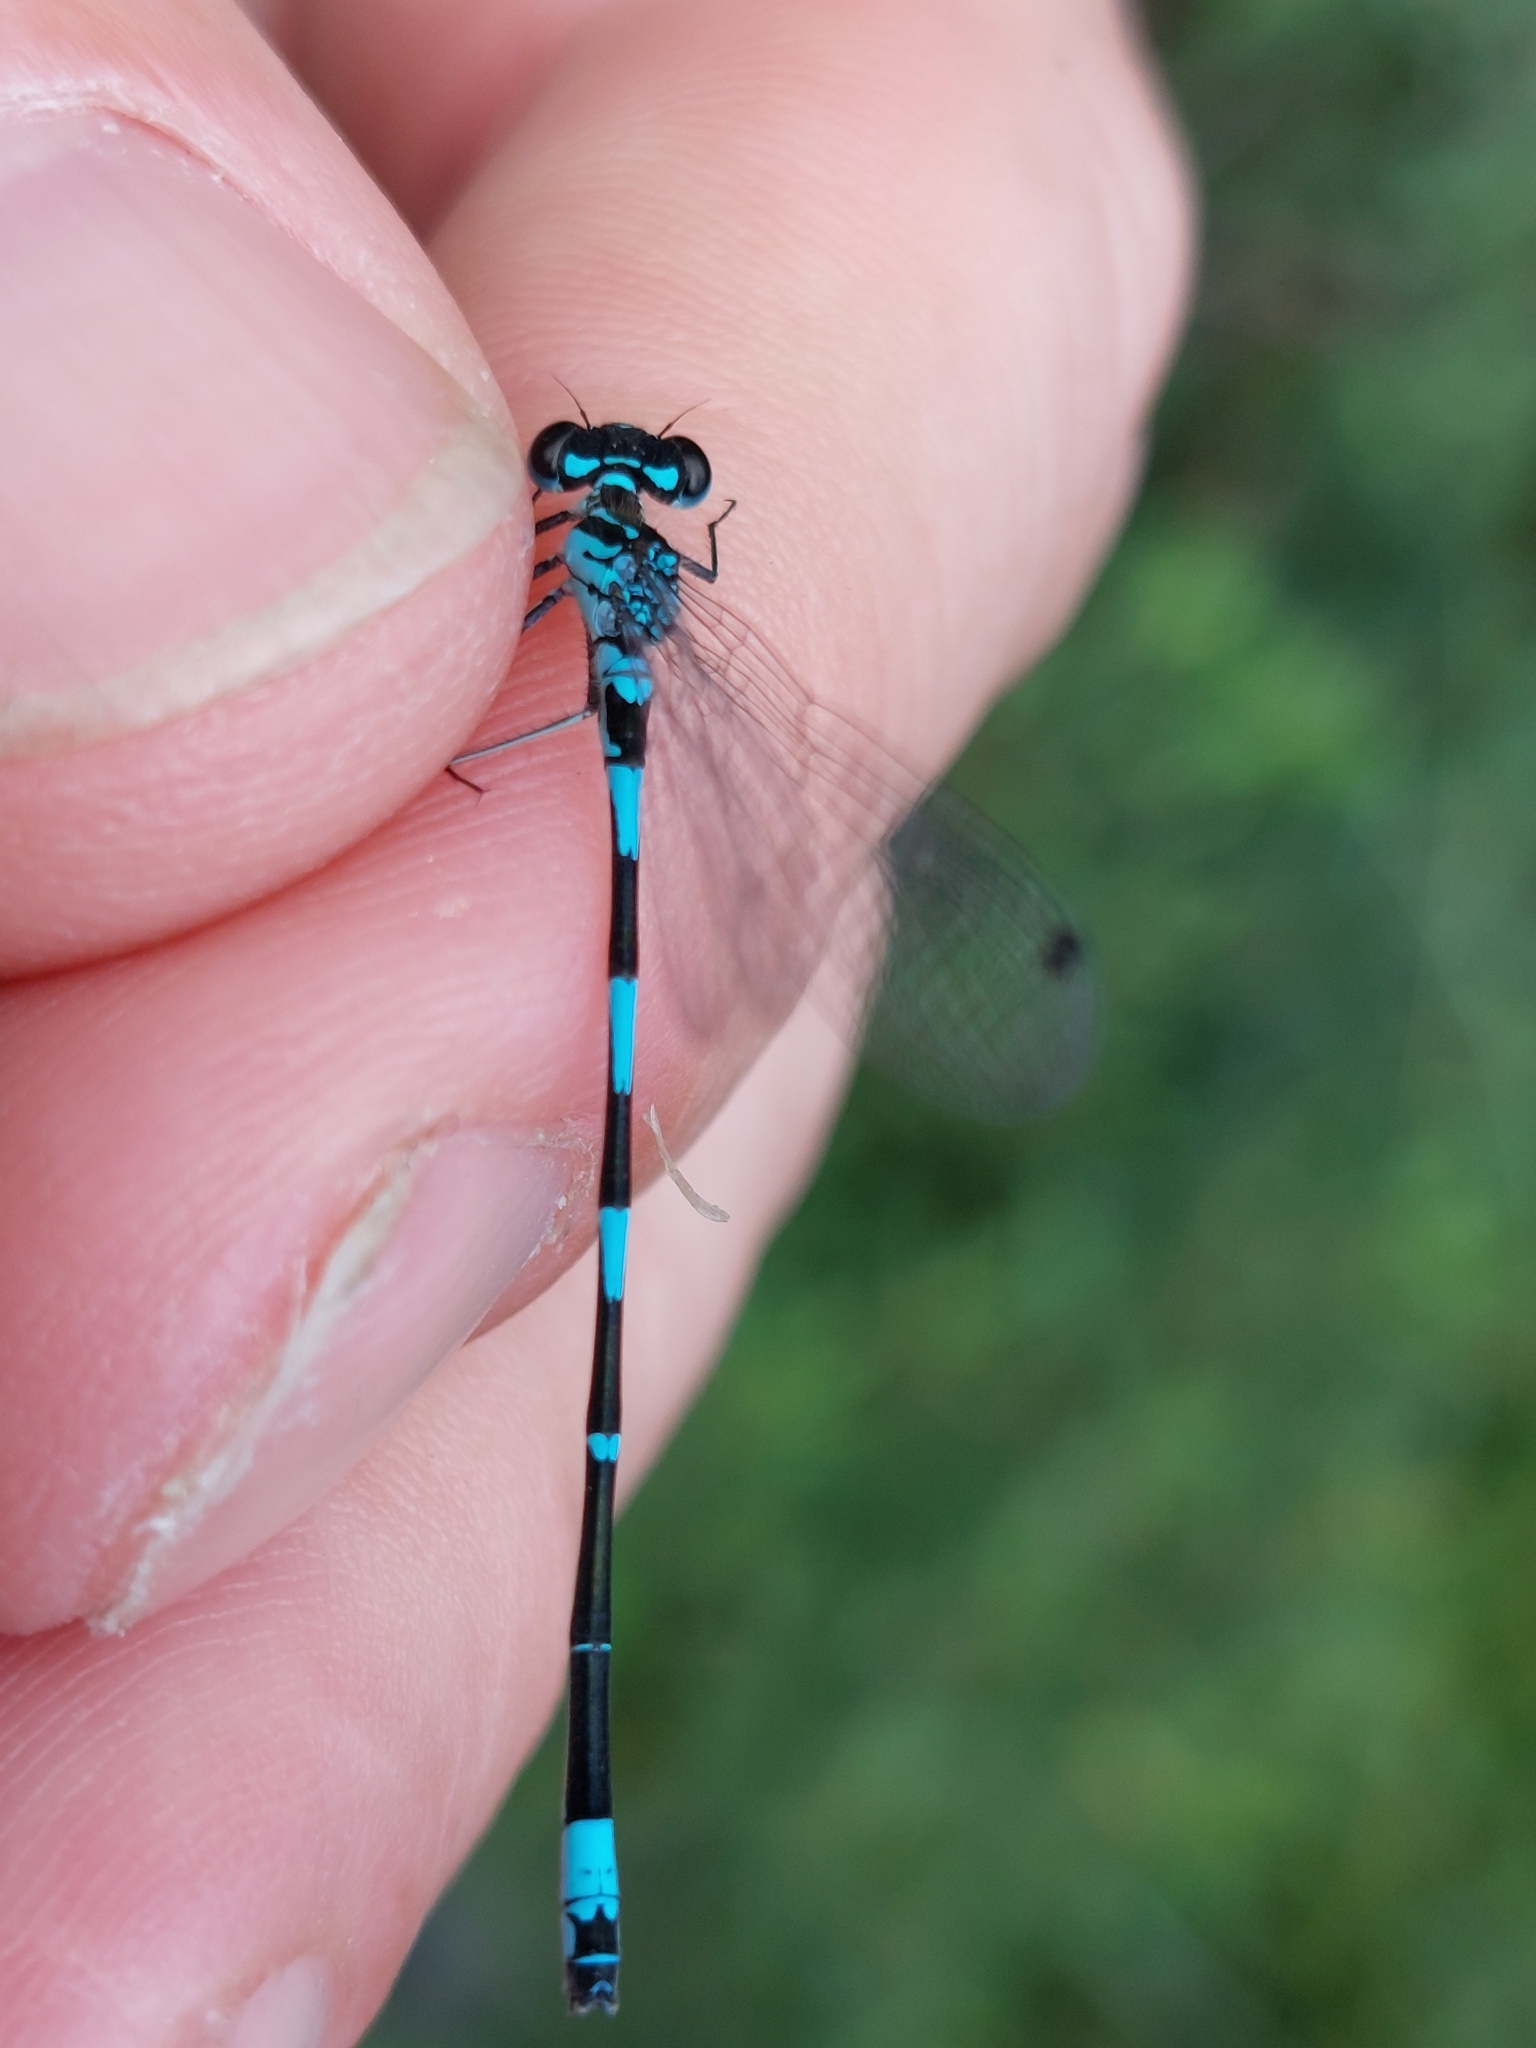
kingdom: Animalia
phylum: Arthropoda
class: Insecta
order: Odonata
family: Coenagrionidae
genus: Coenagrion
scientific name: Coenagrion pulchellum
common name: Variable bluet
